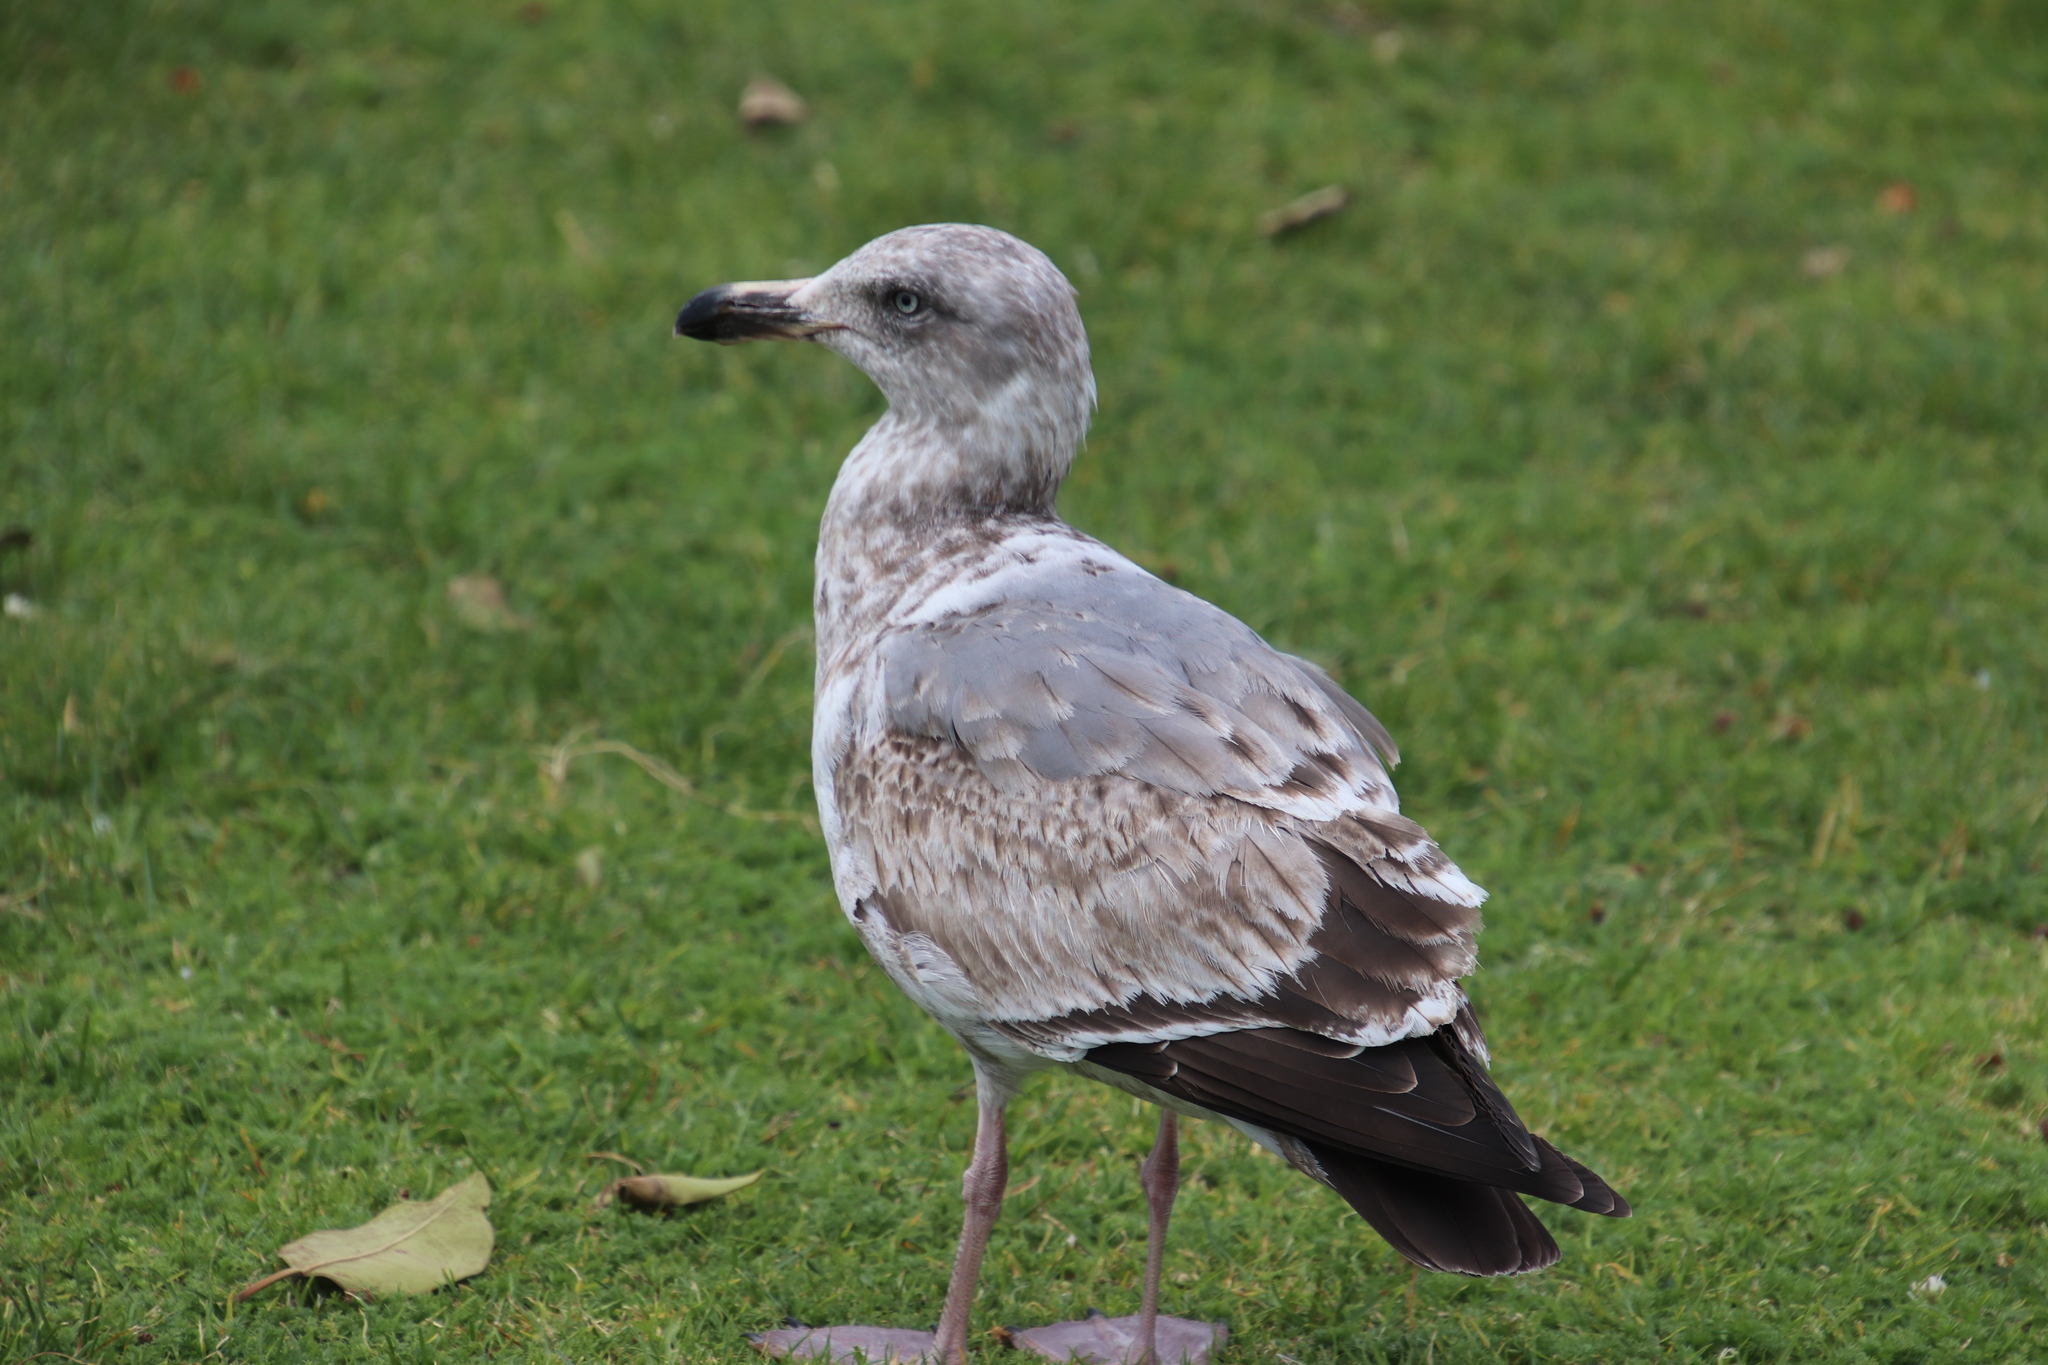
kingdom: Animalia
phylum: Chordata
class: Aves
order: Charadriiformes
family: Laridae
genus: Larus
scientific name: Larus argentatus
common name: Herring gull
